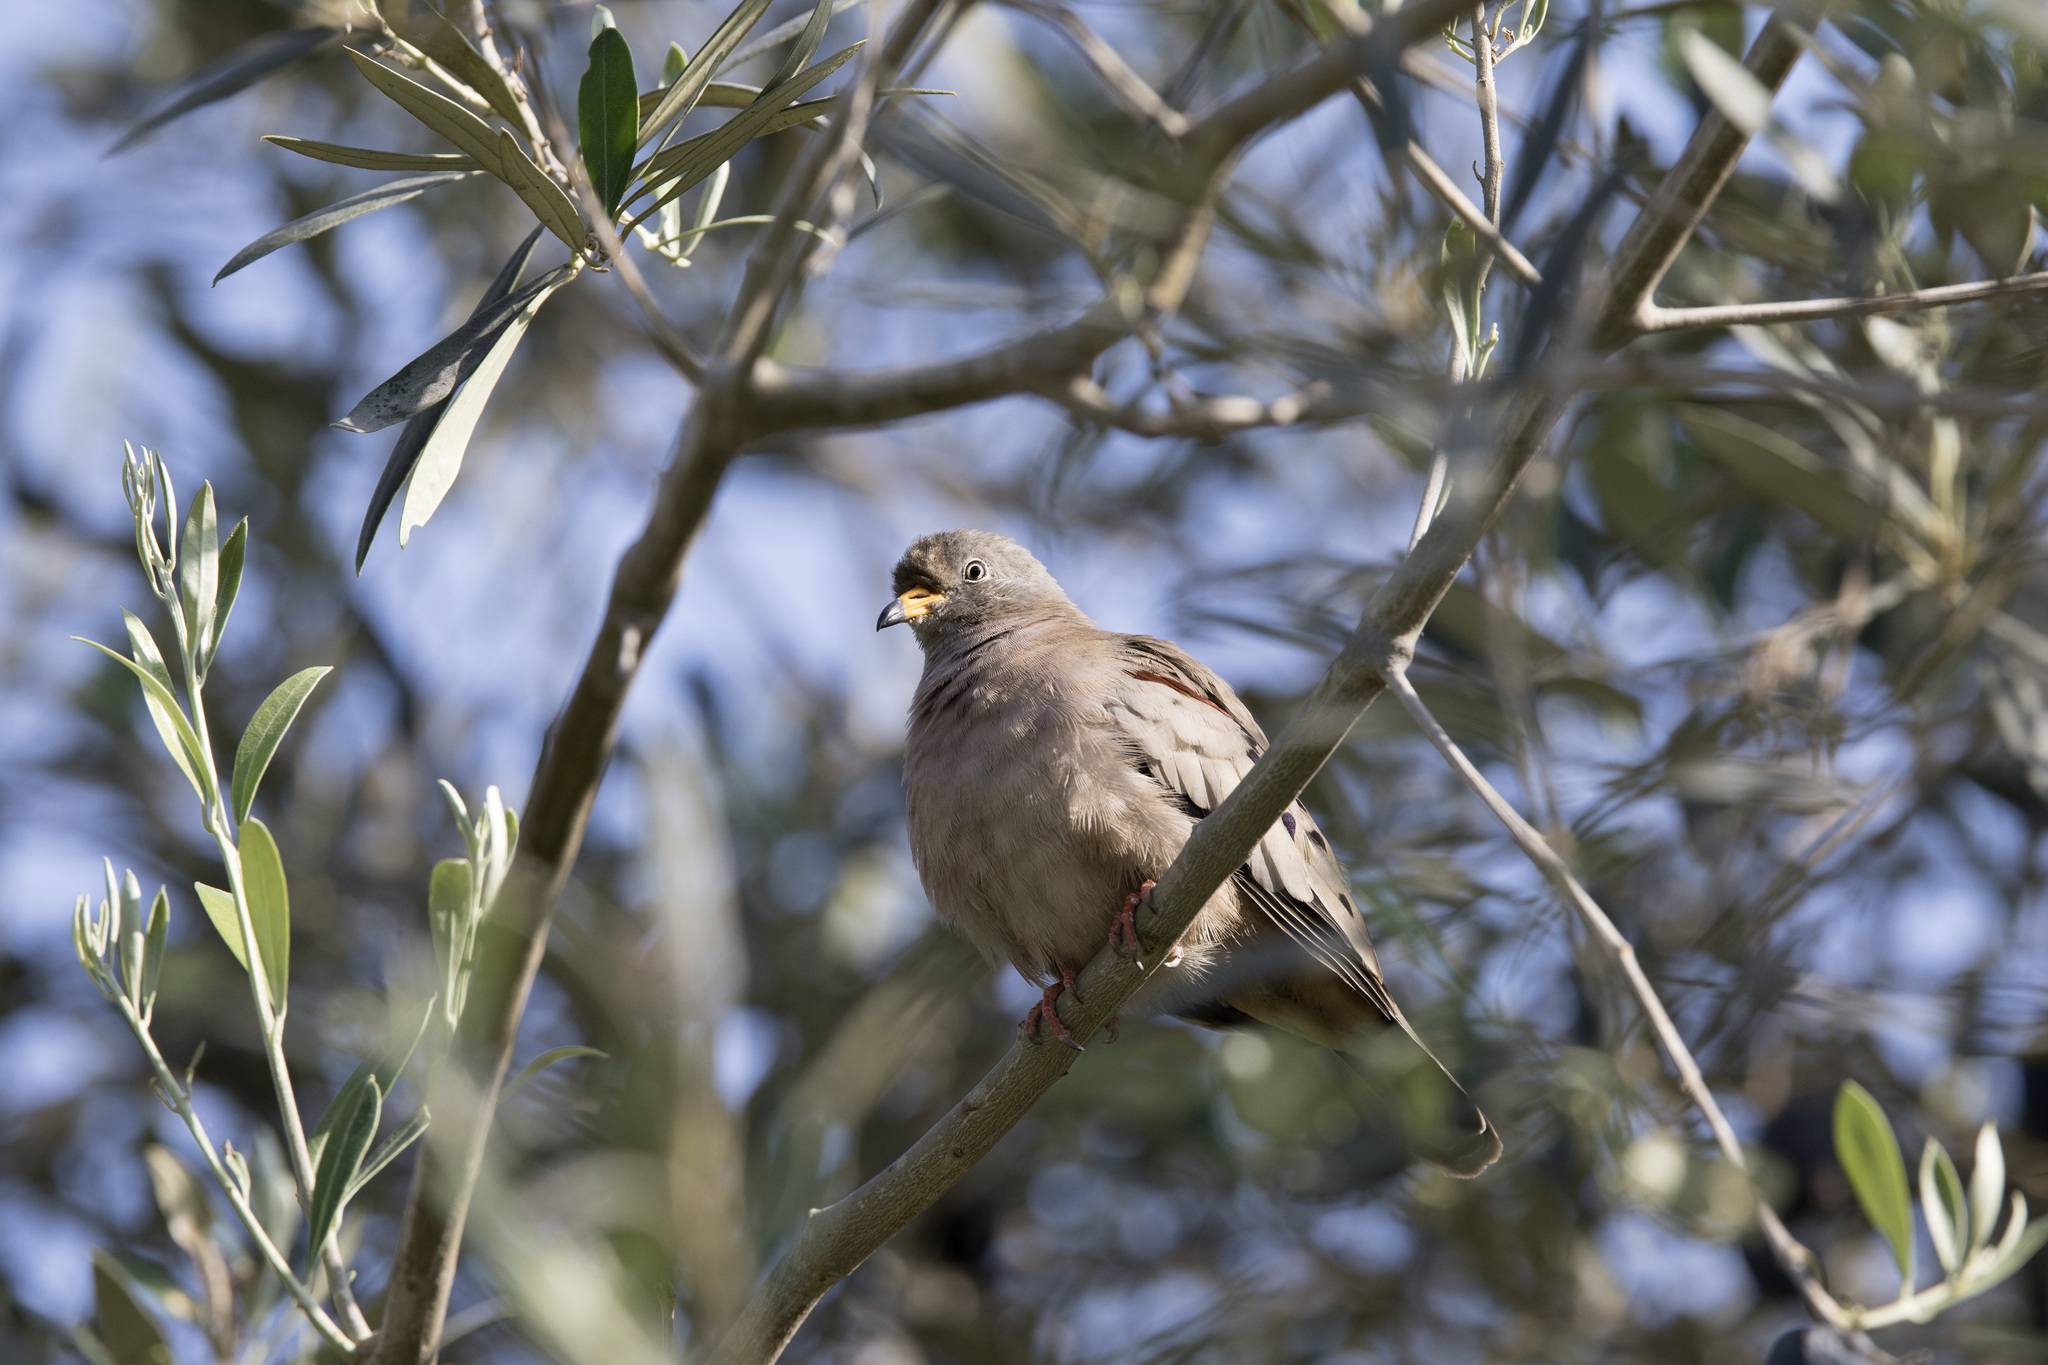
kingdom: Animalia
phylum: Chordata
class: Aves
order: Columbiformes
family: Columbidae
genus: Columbina
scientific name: Columbina cruziana
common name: Croaking ground dove
